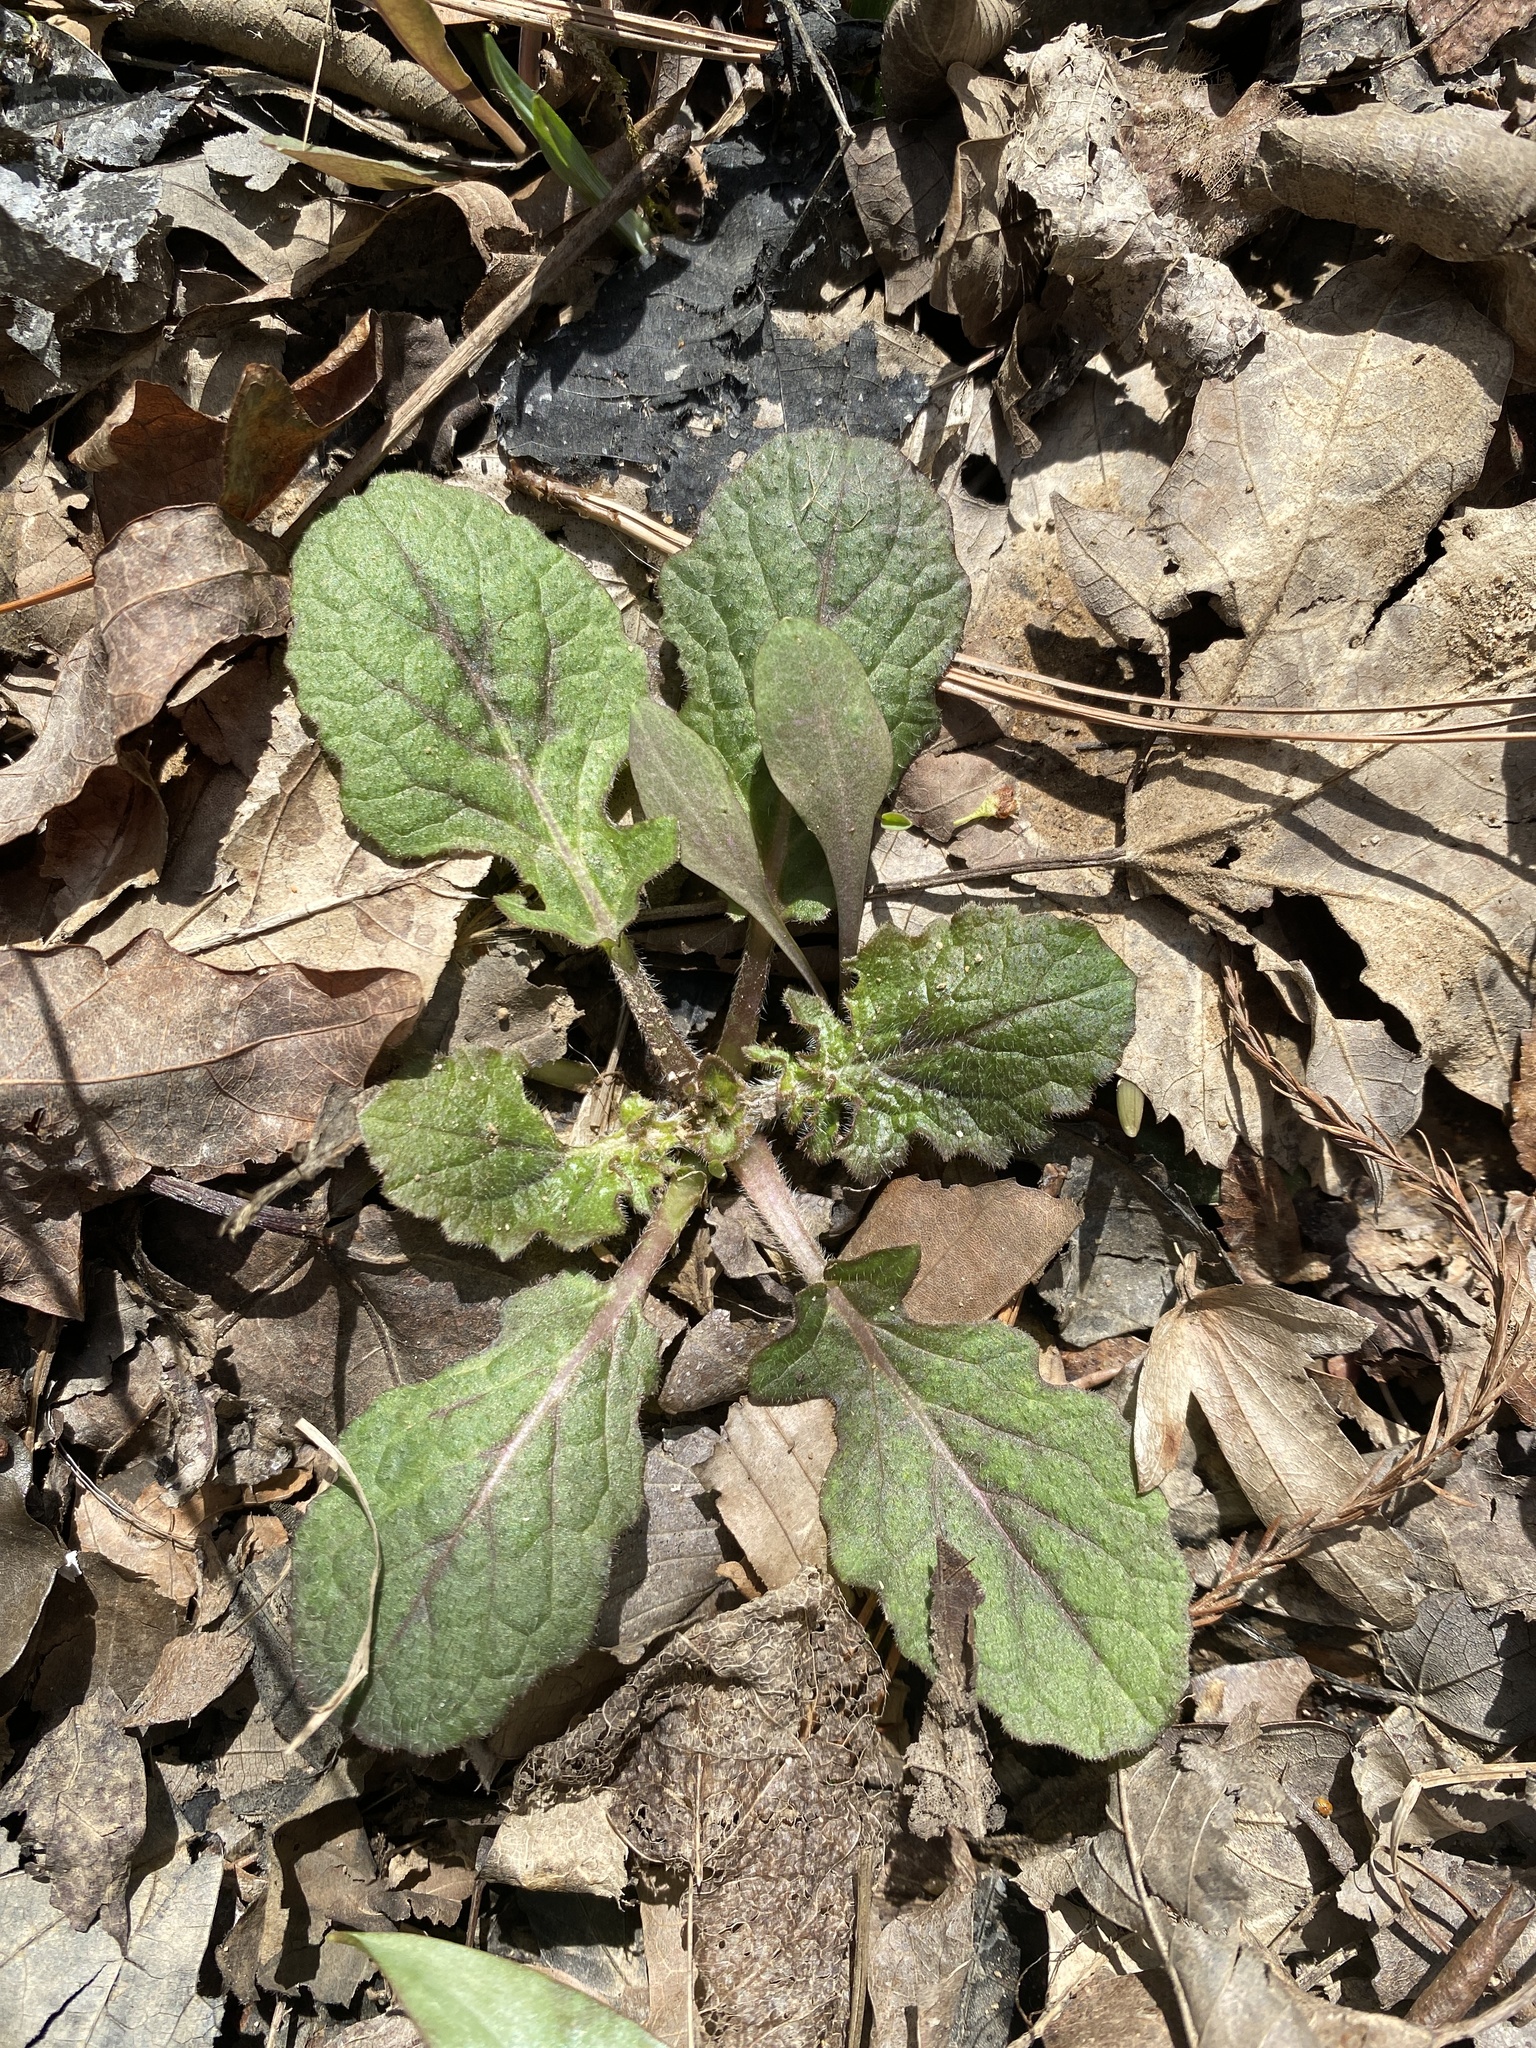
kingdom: Plantae
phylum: Tracheophyta
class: Magnoliopsida
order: Lamiales
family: Lamiaceae
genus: Salvia
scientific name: Salvia lyrata
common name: Cancerweed
